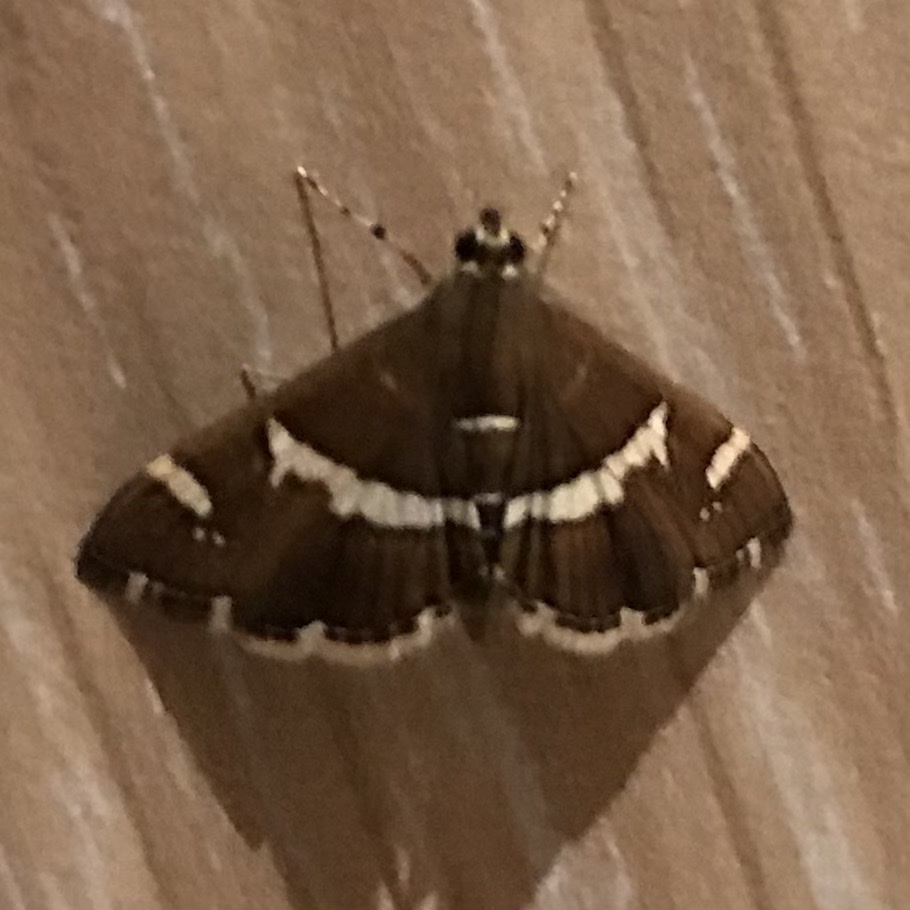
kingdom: Animalia
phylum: Arthropoda
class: Insecta
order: Lepidoptera
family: Crambidae
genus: Spoladea
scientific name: Spoladea recurvalis
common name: Beet webworm moth
